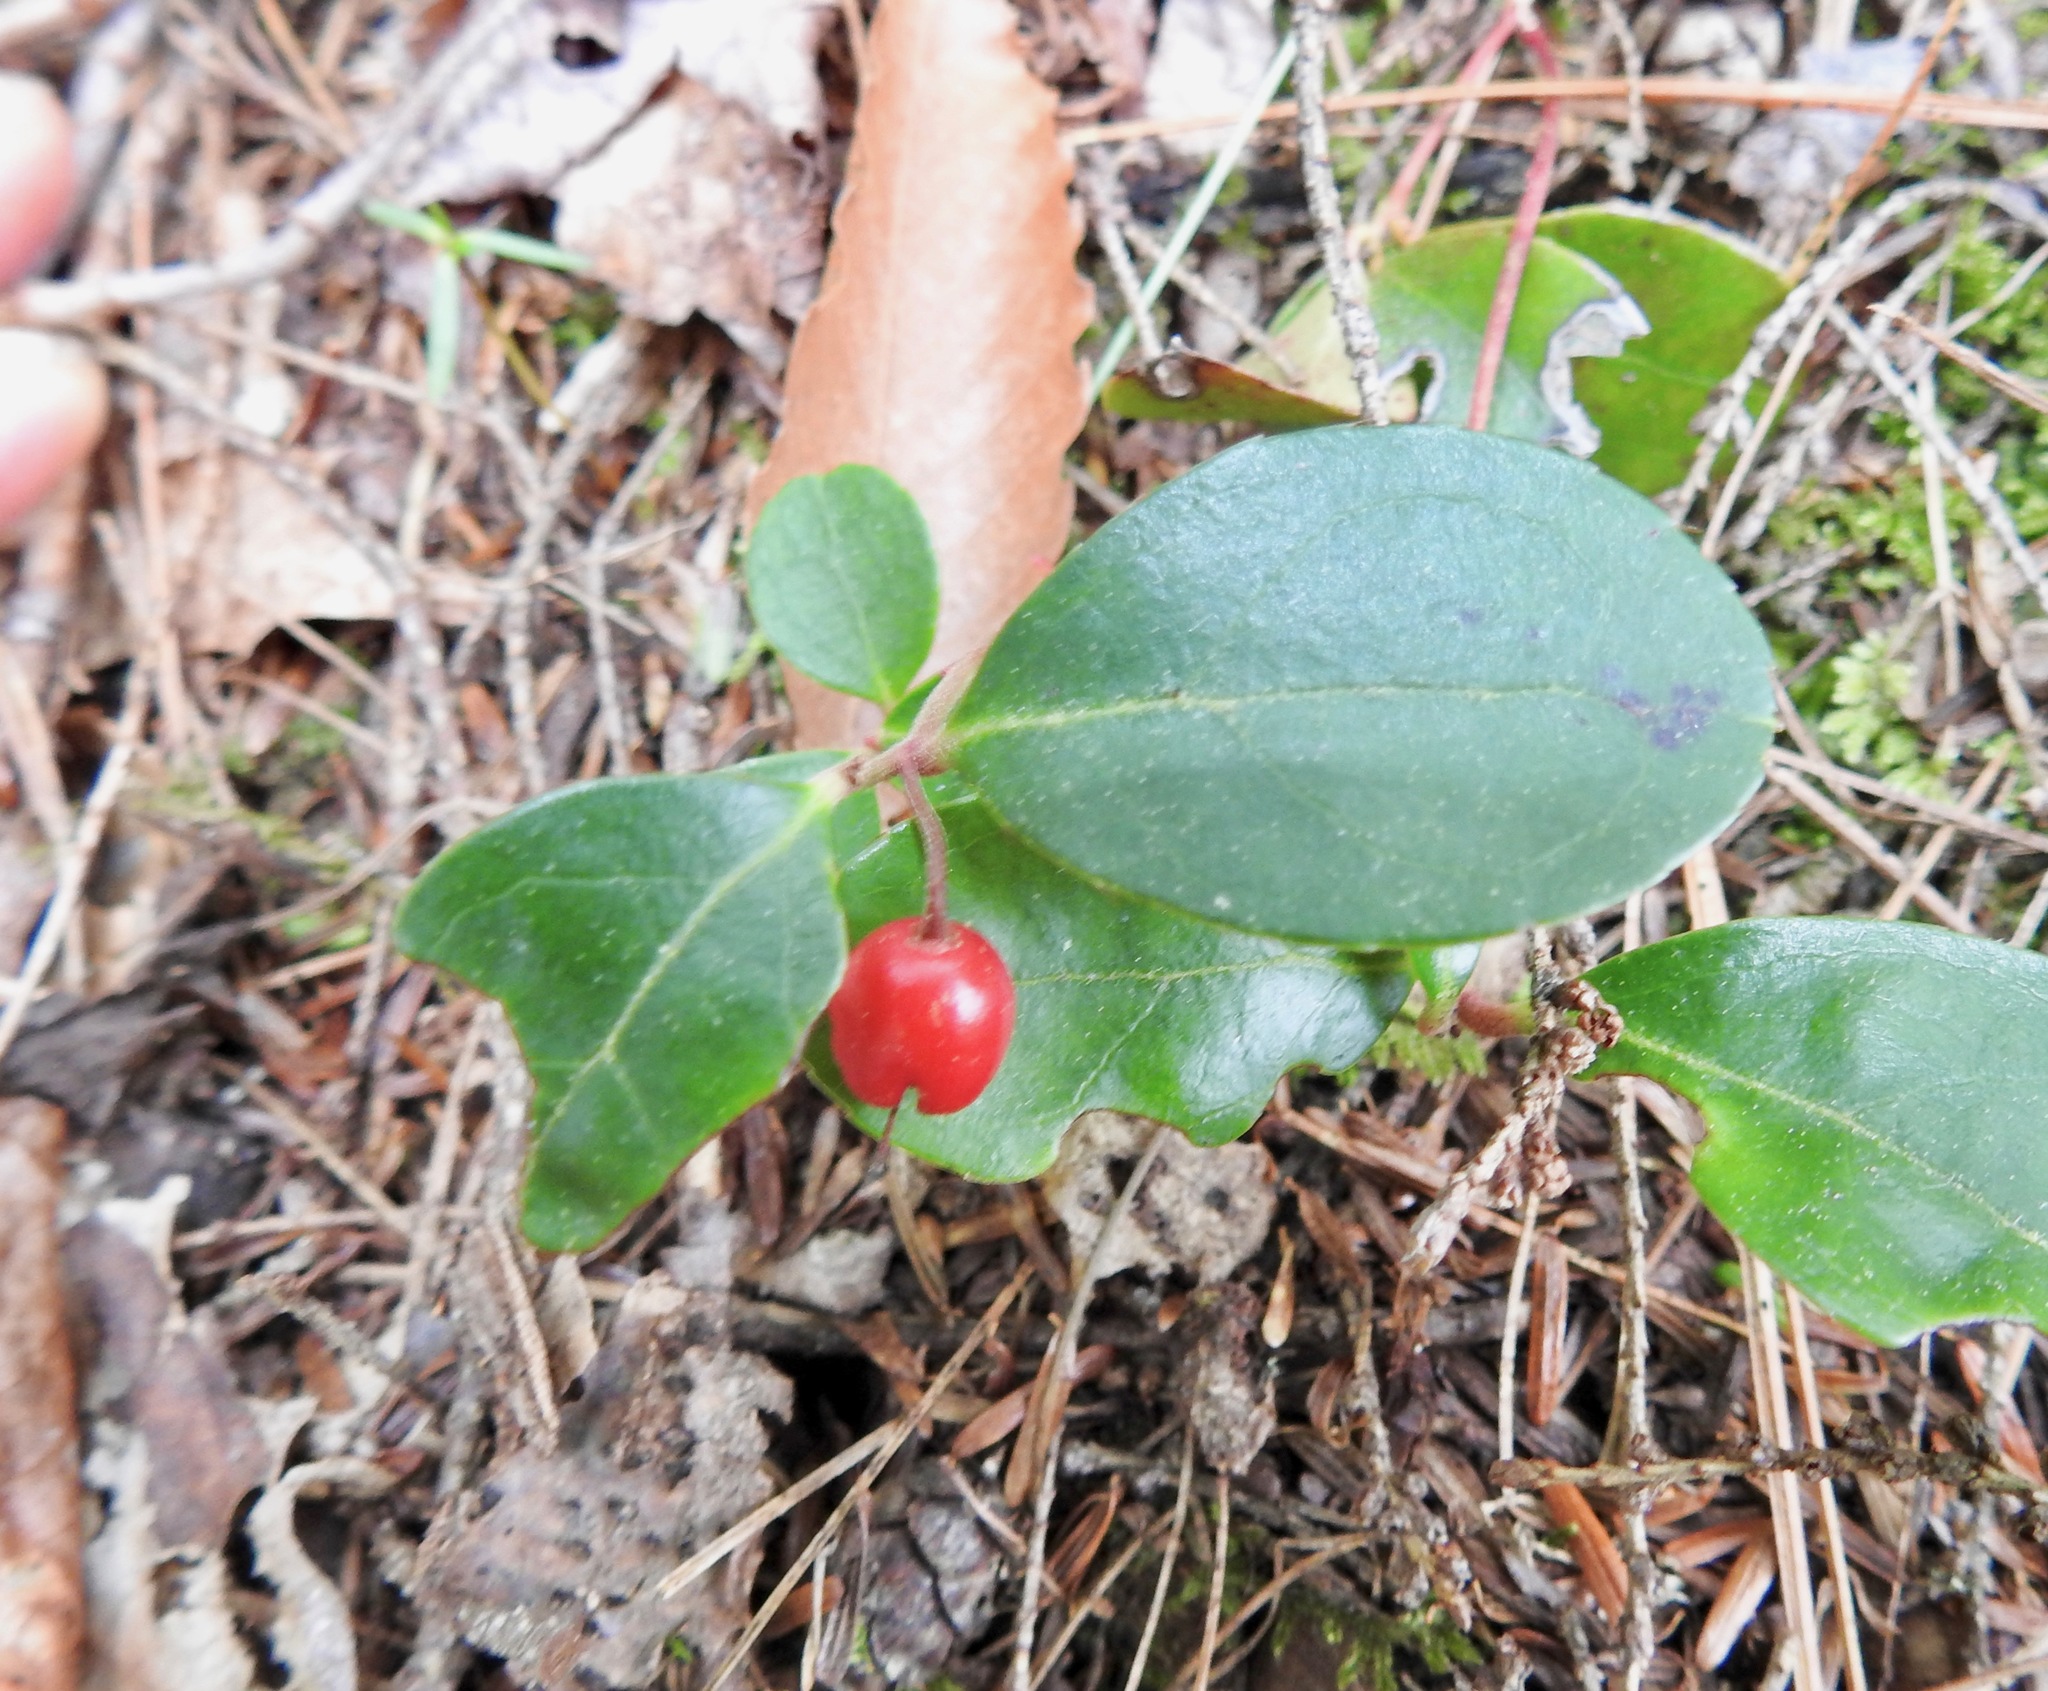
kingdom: Plantae
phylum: Tracheophyta
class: Magnoliopsida
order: Ericales
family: Ericaceae
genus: Gaultheria
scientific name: Gaultheria procumbens
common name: Checkerberry
